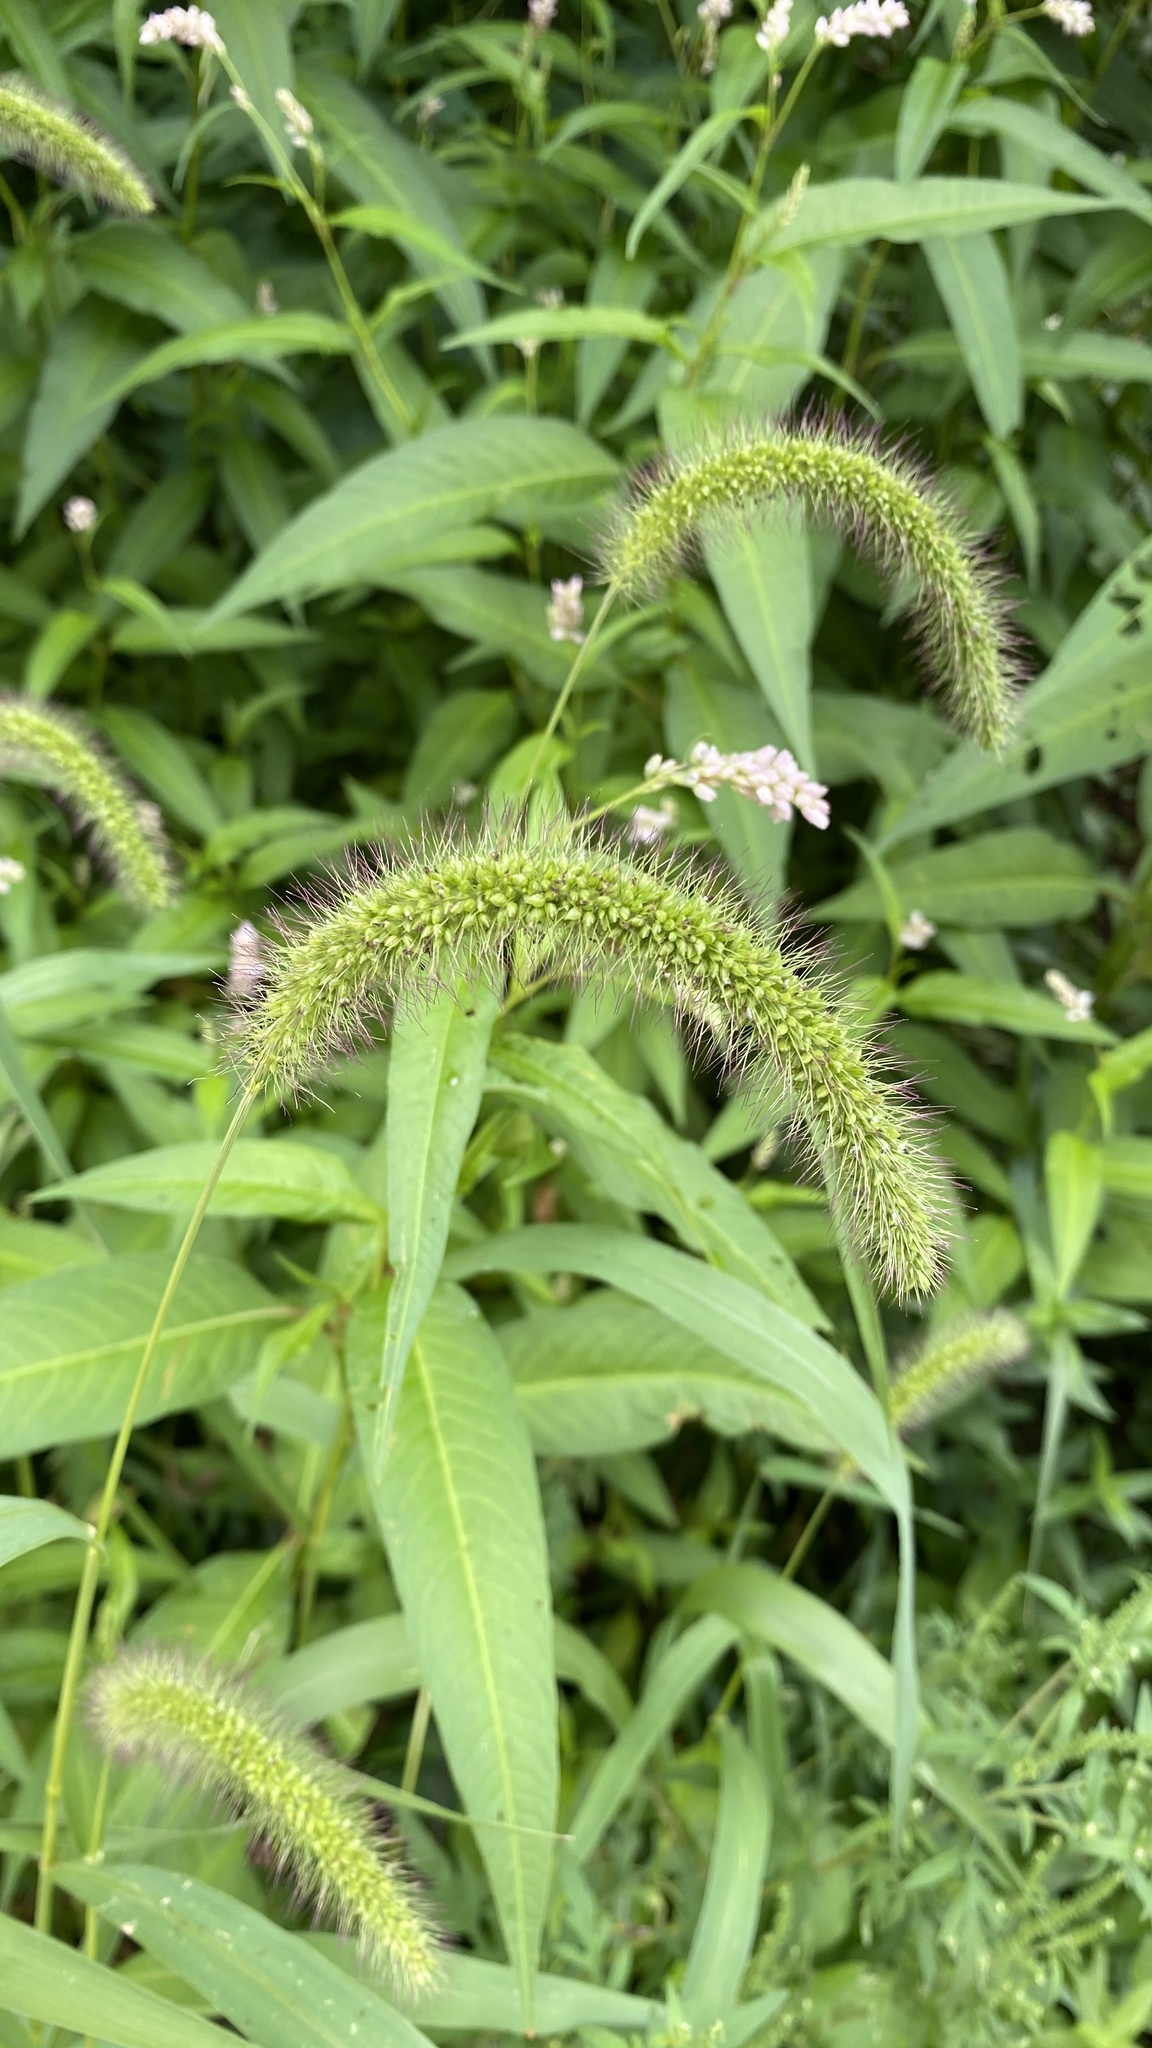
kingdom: Plantae
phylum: Tracheophyta
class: Liliopsida
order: Poales
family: Poaceae
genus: Setaria
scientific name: Setaria faberi
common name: Nodding bristle-grass
